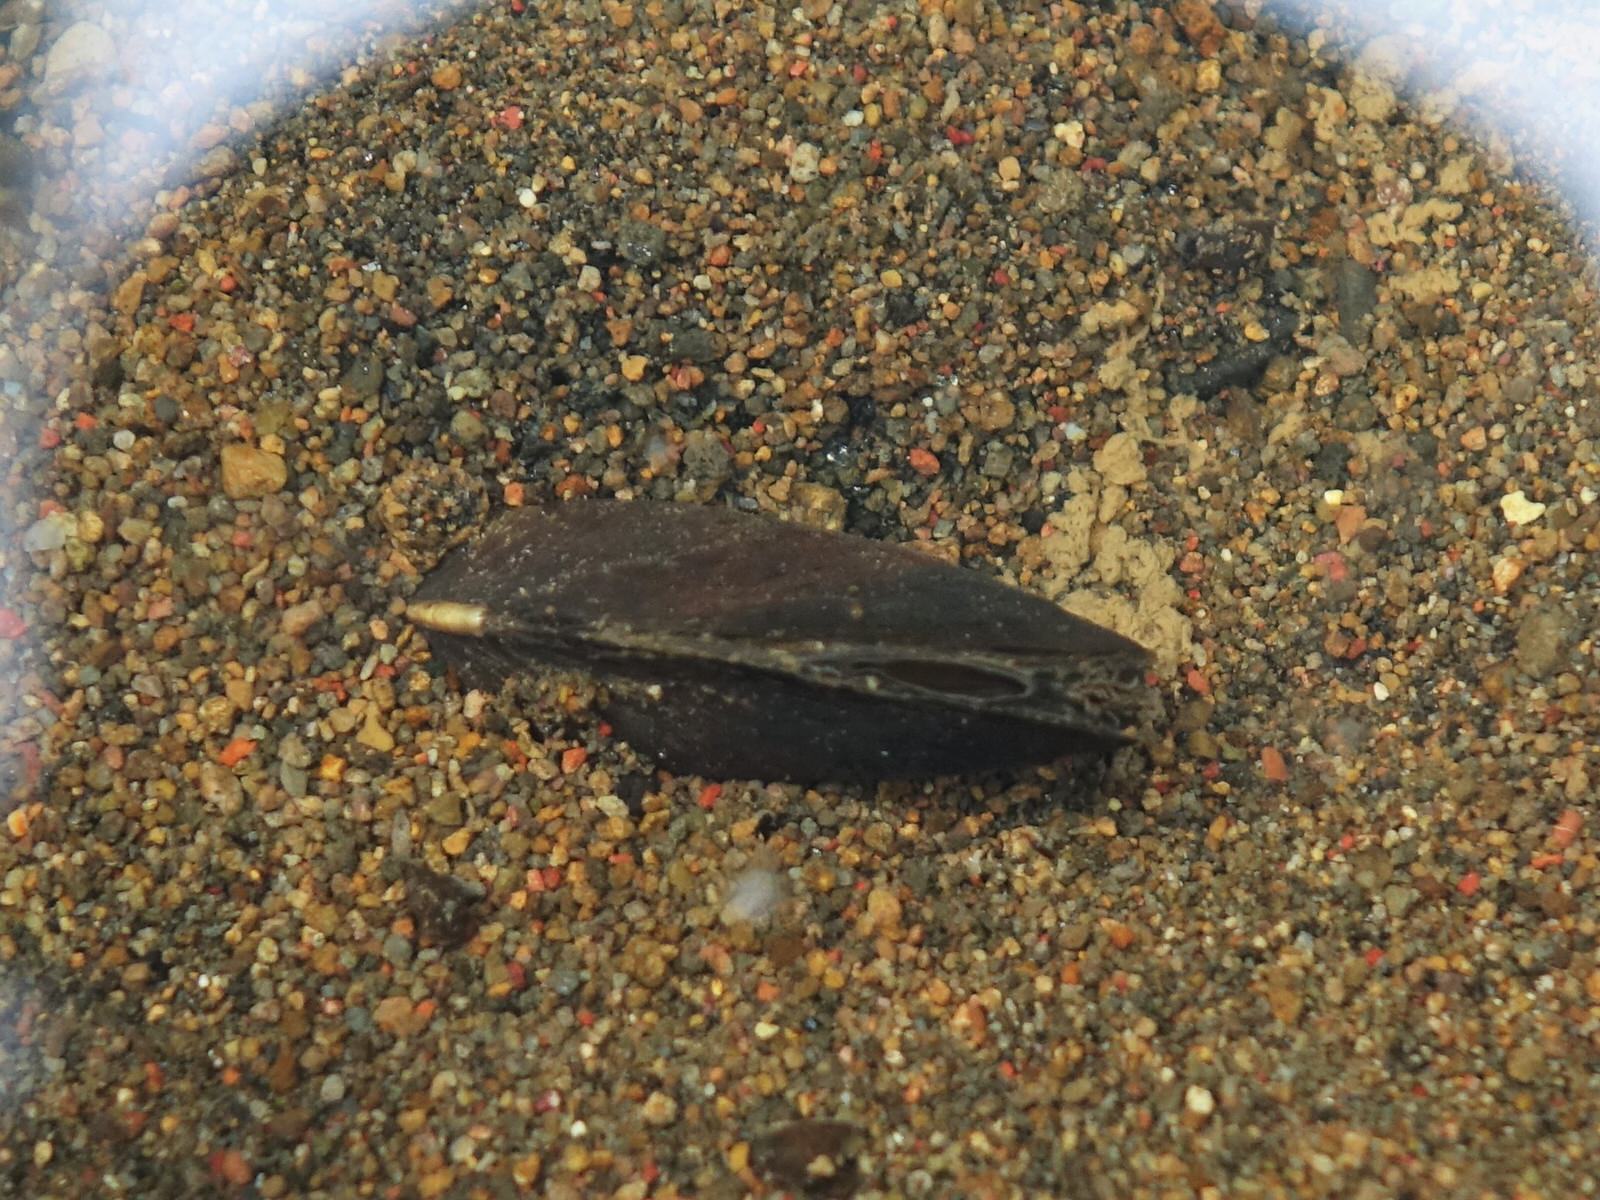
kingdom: Animalia
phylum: Mollusca
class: Bivalvia
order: Unionida
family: Hyriidae
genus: Echyridella
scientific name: Echyridella menziesii
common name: New zealand freshwater mussel
